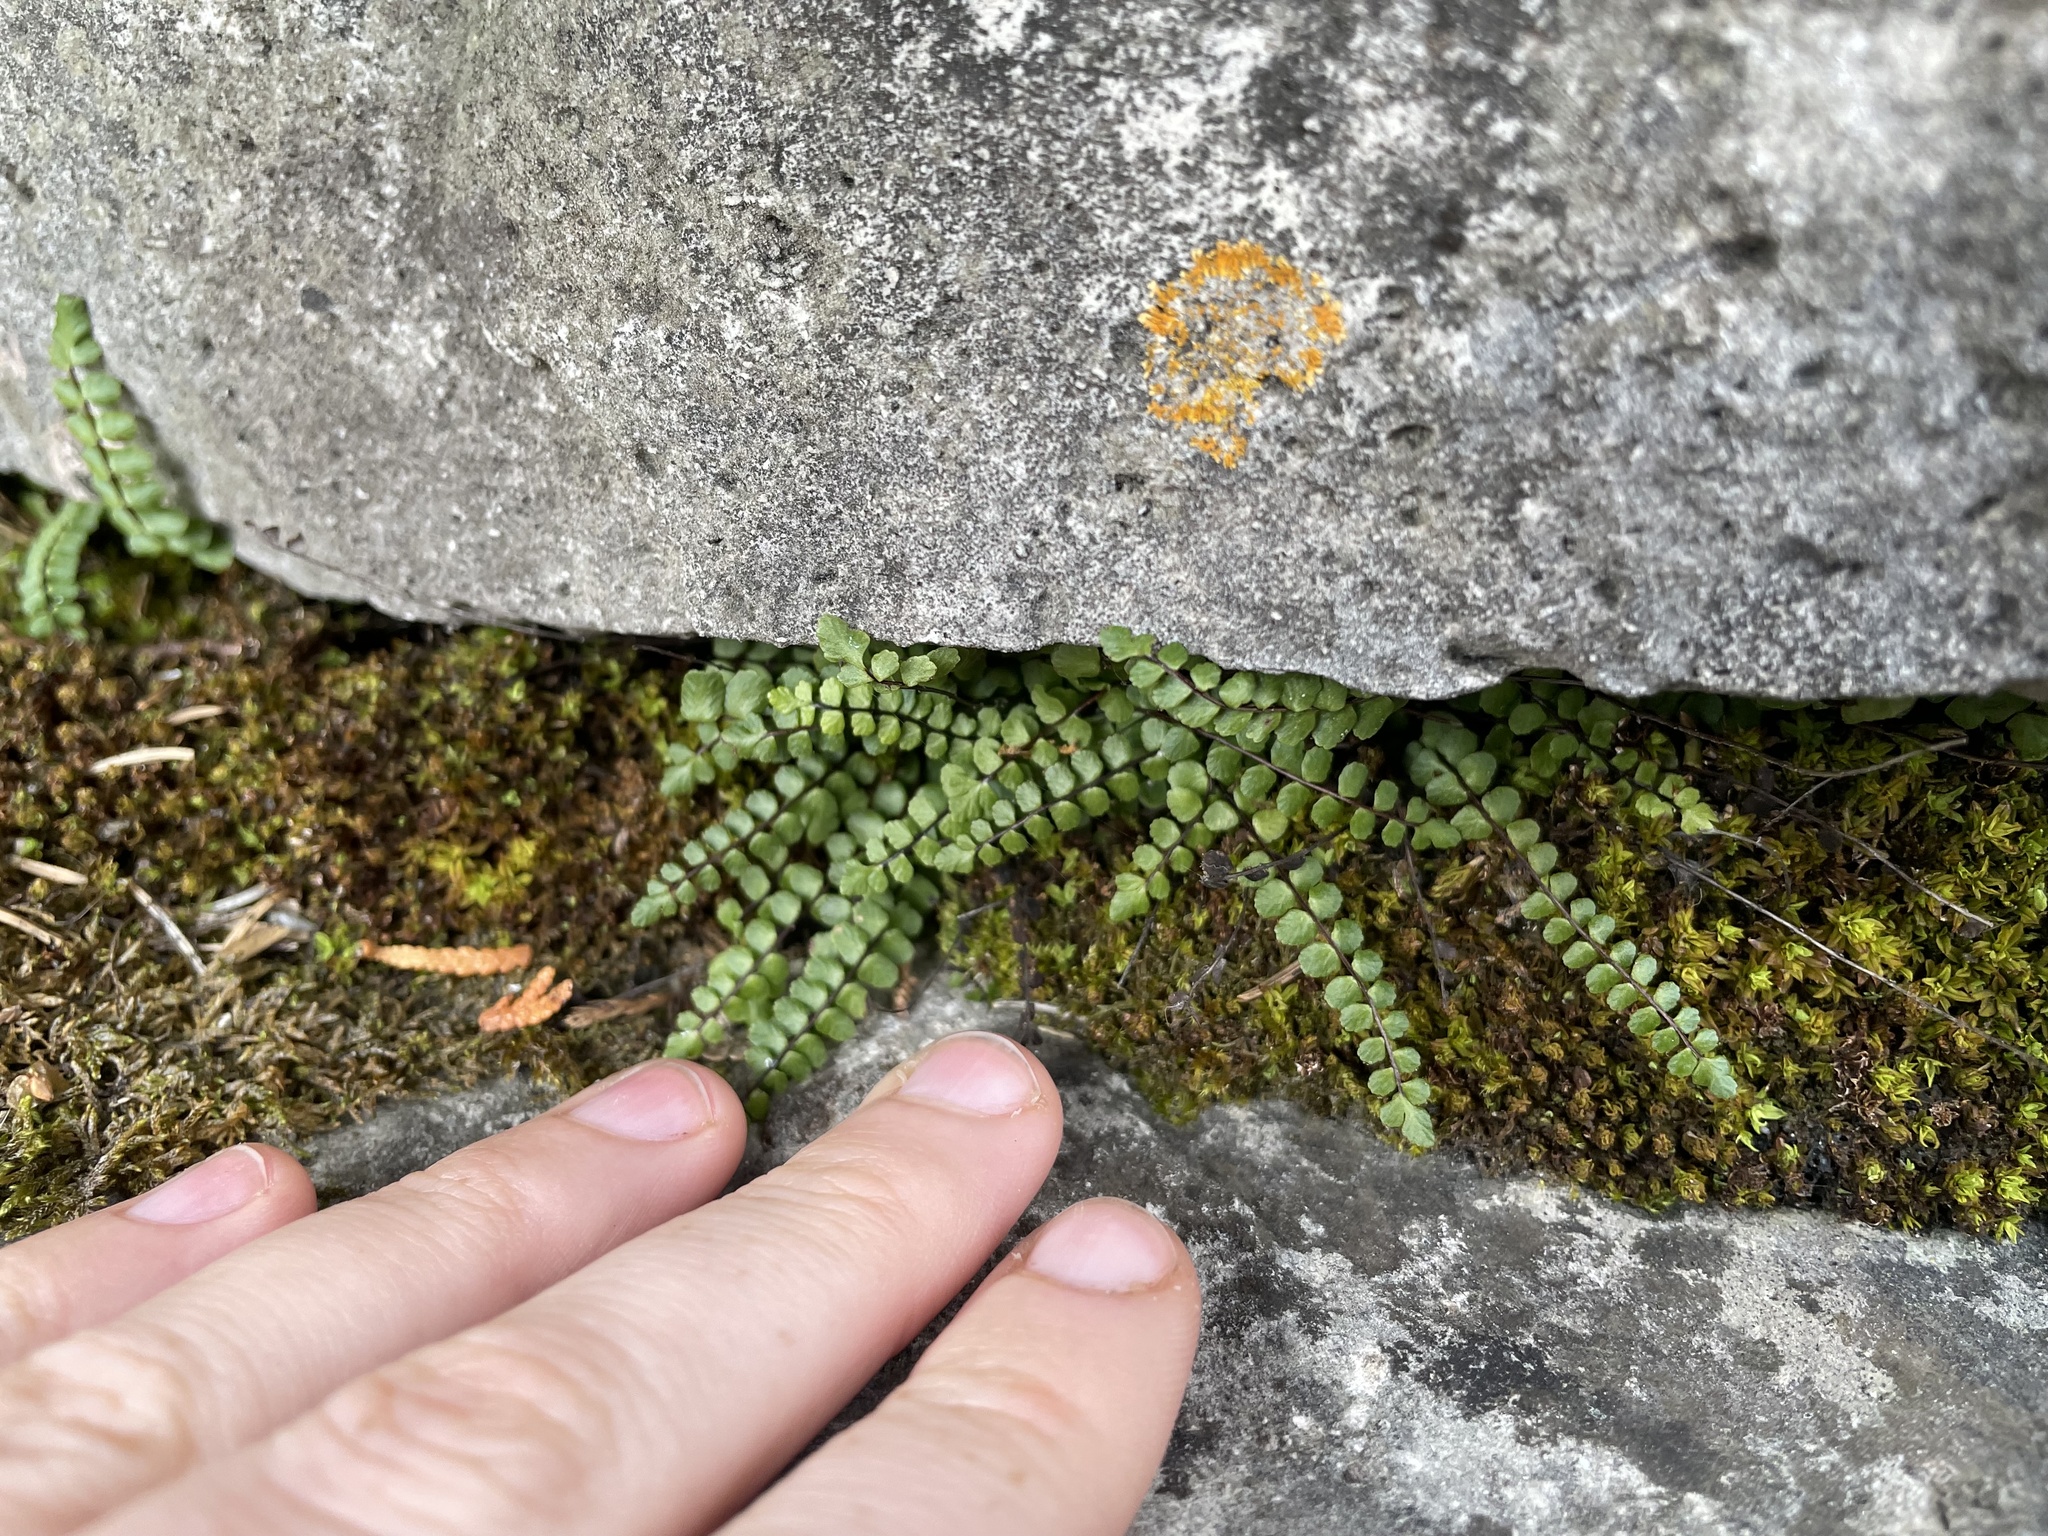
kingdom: Plantae
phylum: Tracheophyta
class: Polypodiopsida
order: Polypodiales
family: Aspleniaceae
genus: Asplenium
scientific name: Asplenium trichomanes
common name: Maidenhair spleenwort
